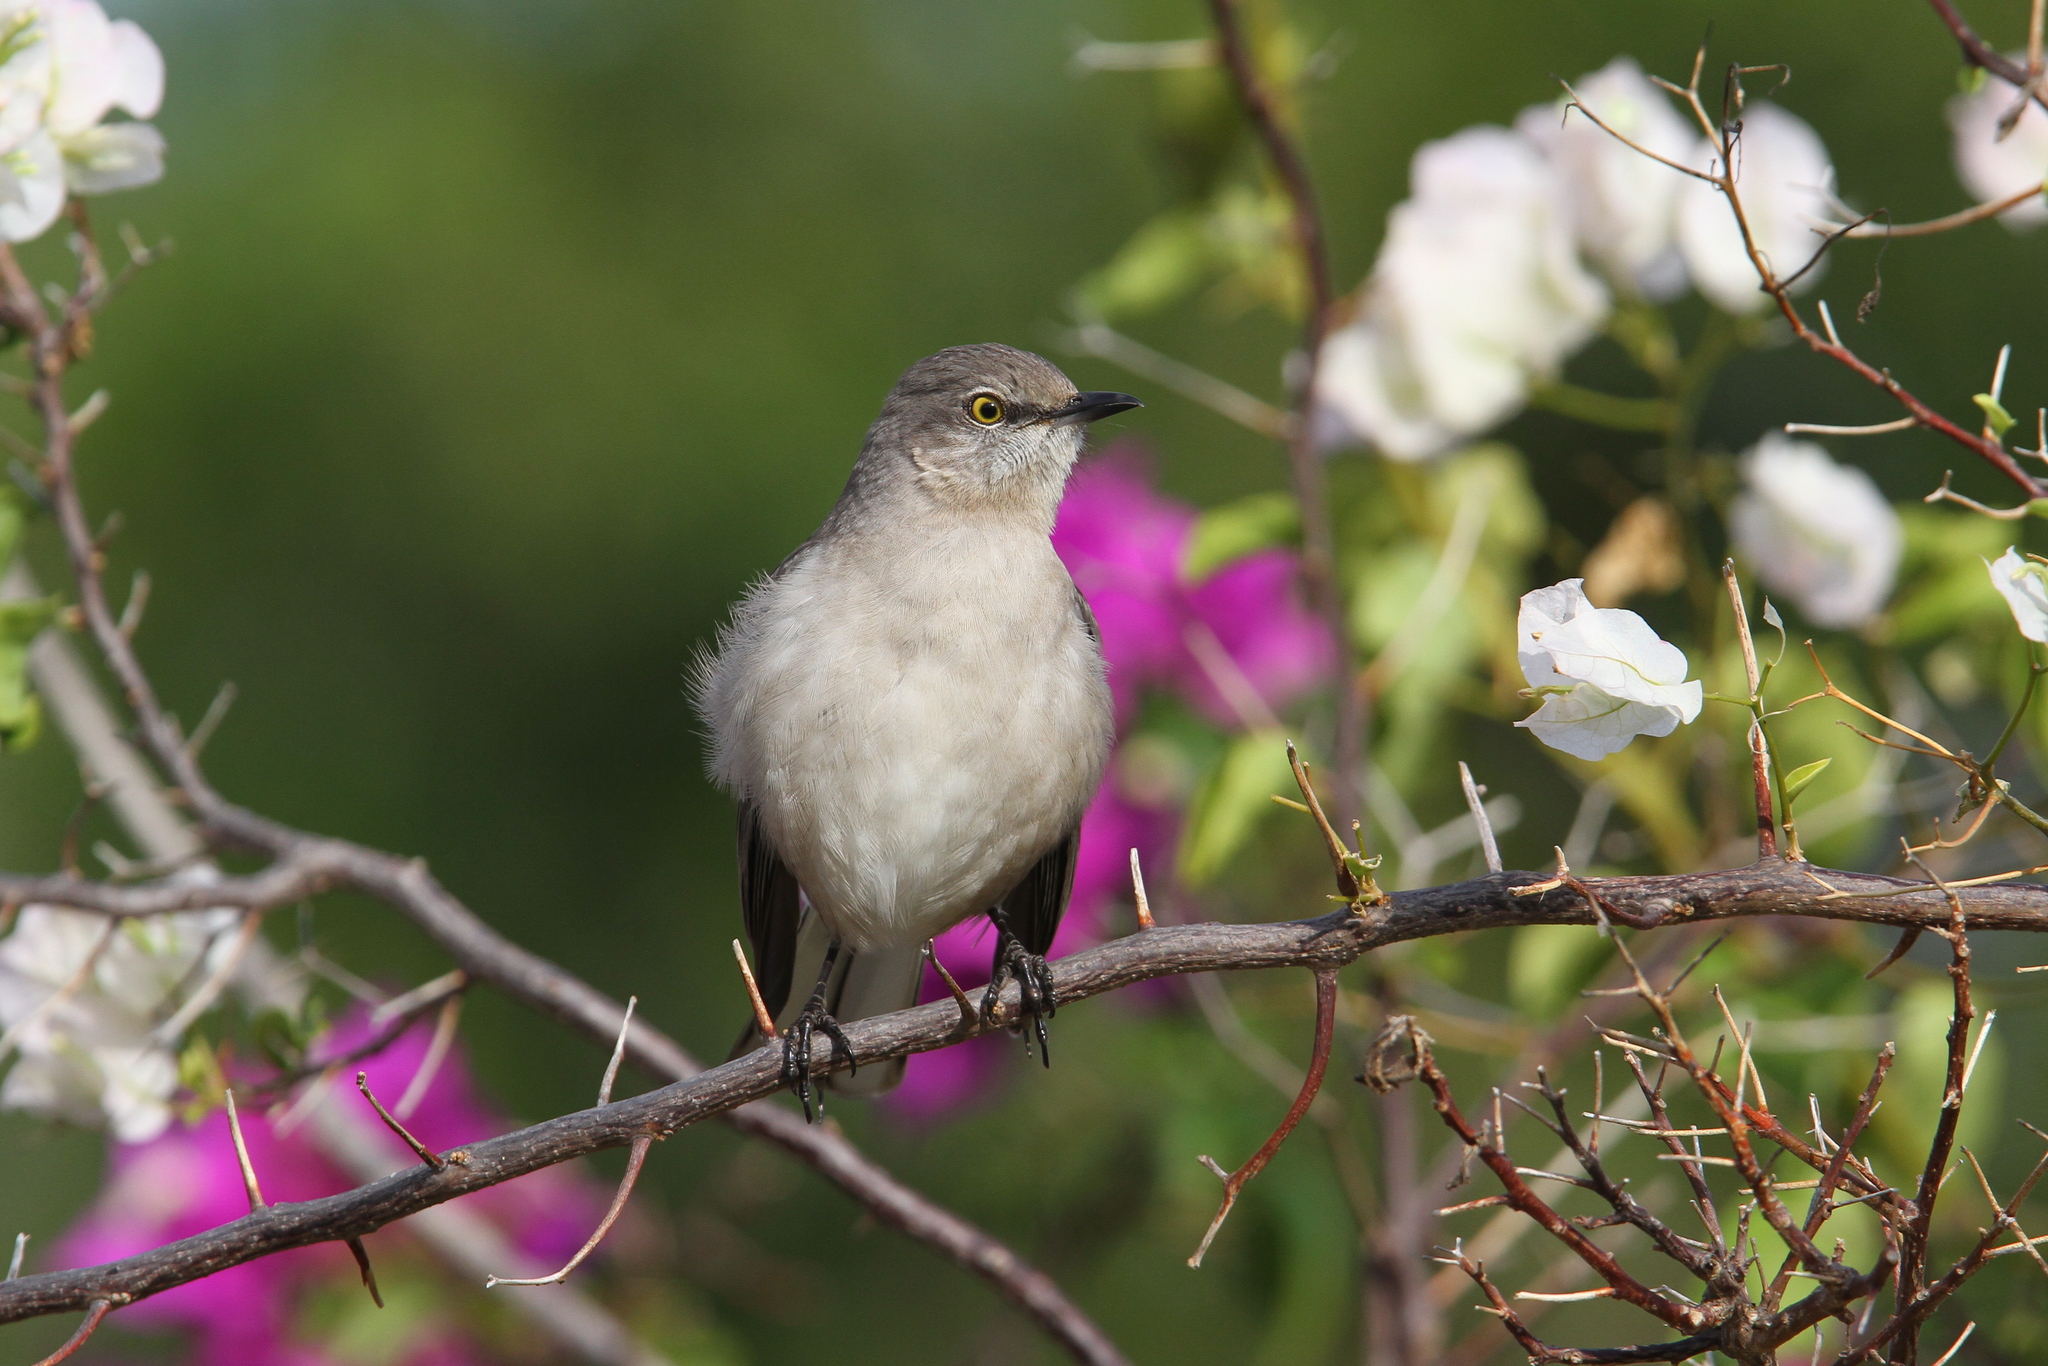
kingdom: Animalia
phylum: Chordata
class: Aves
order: Passeriformes
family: Mimidae
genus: Mimus
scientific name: Mimus polyglottos
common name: Northern mockingbird
